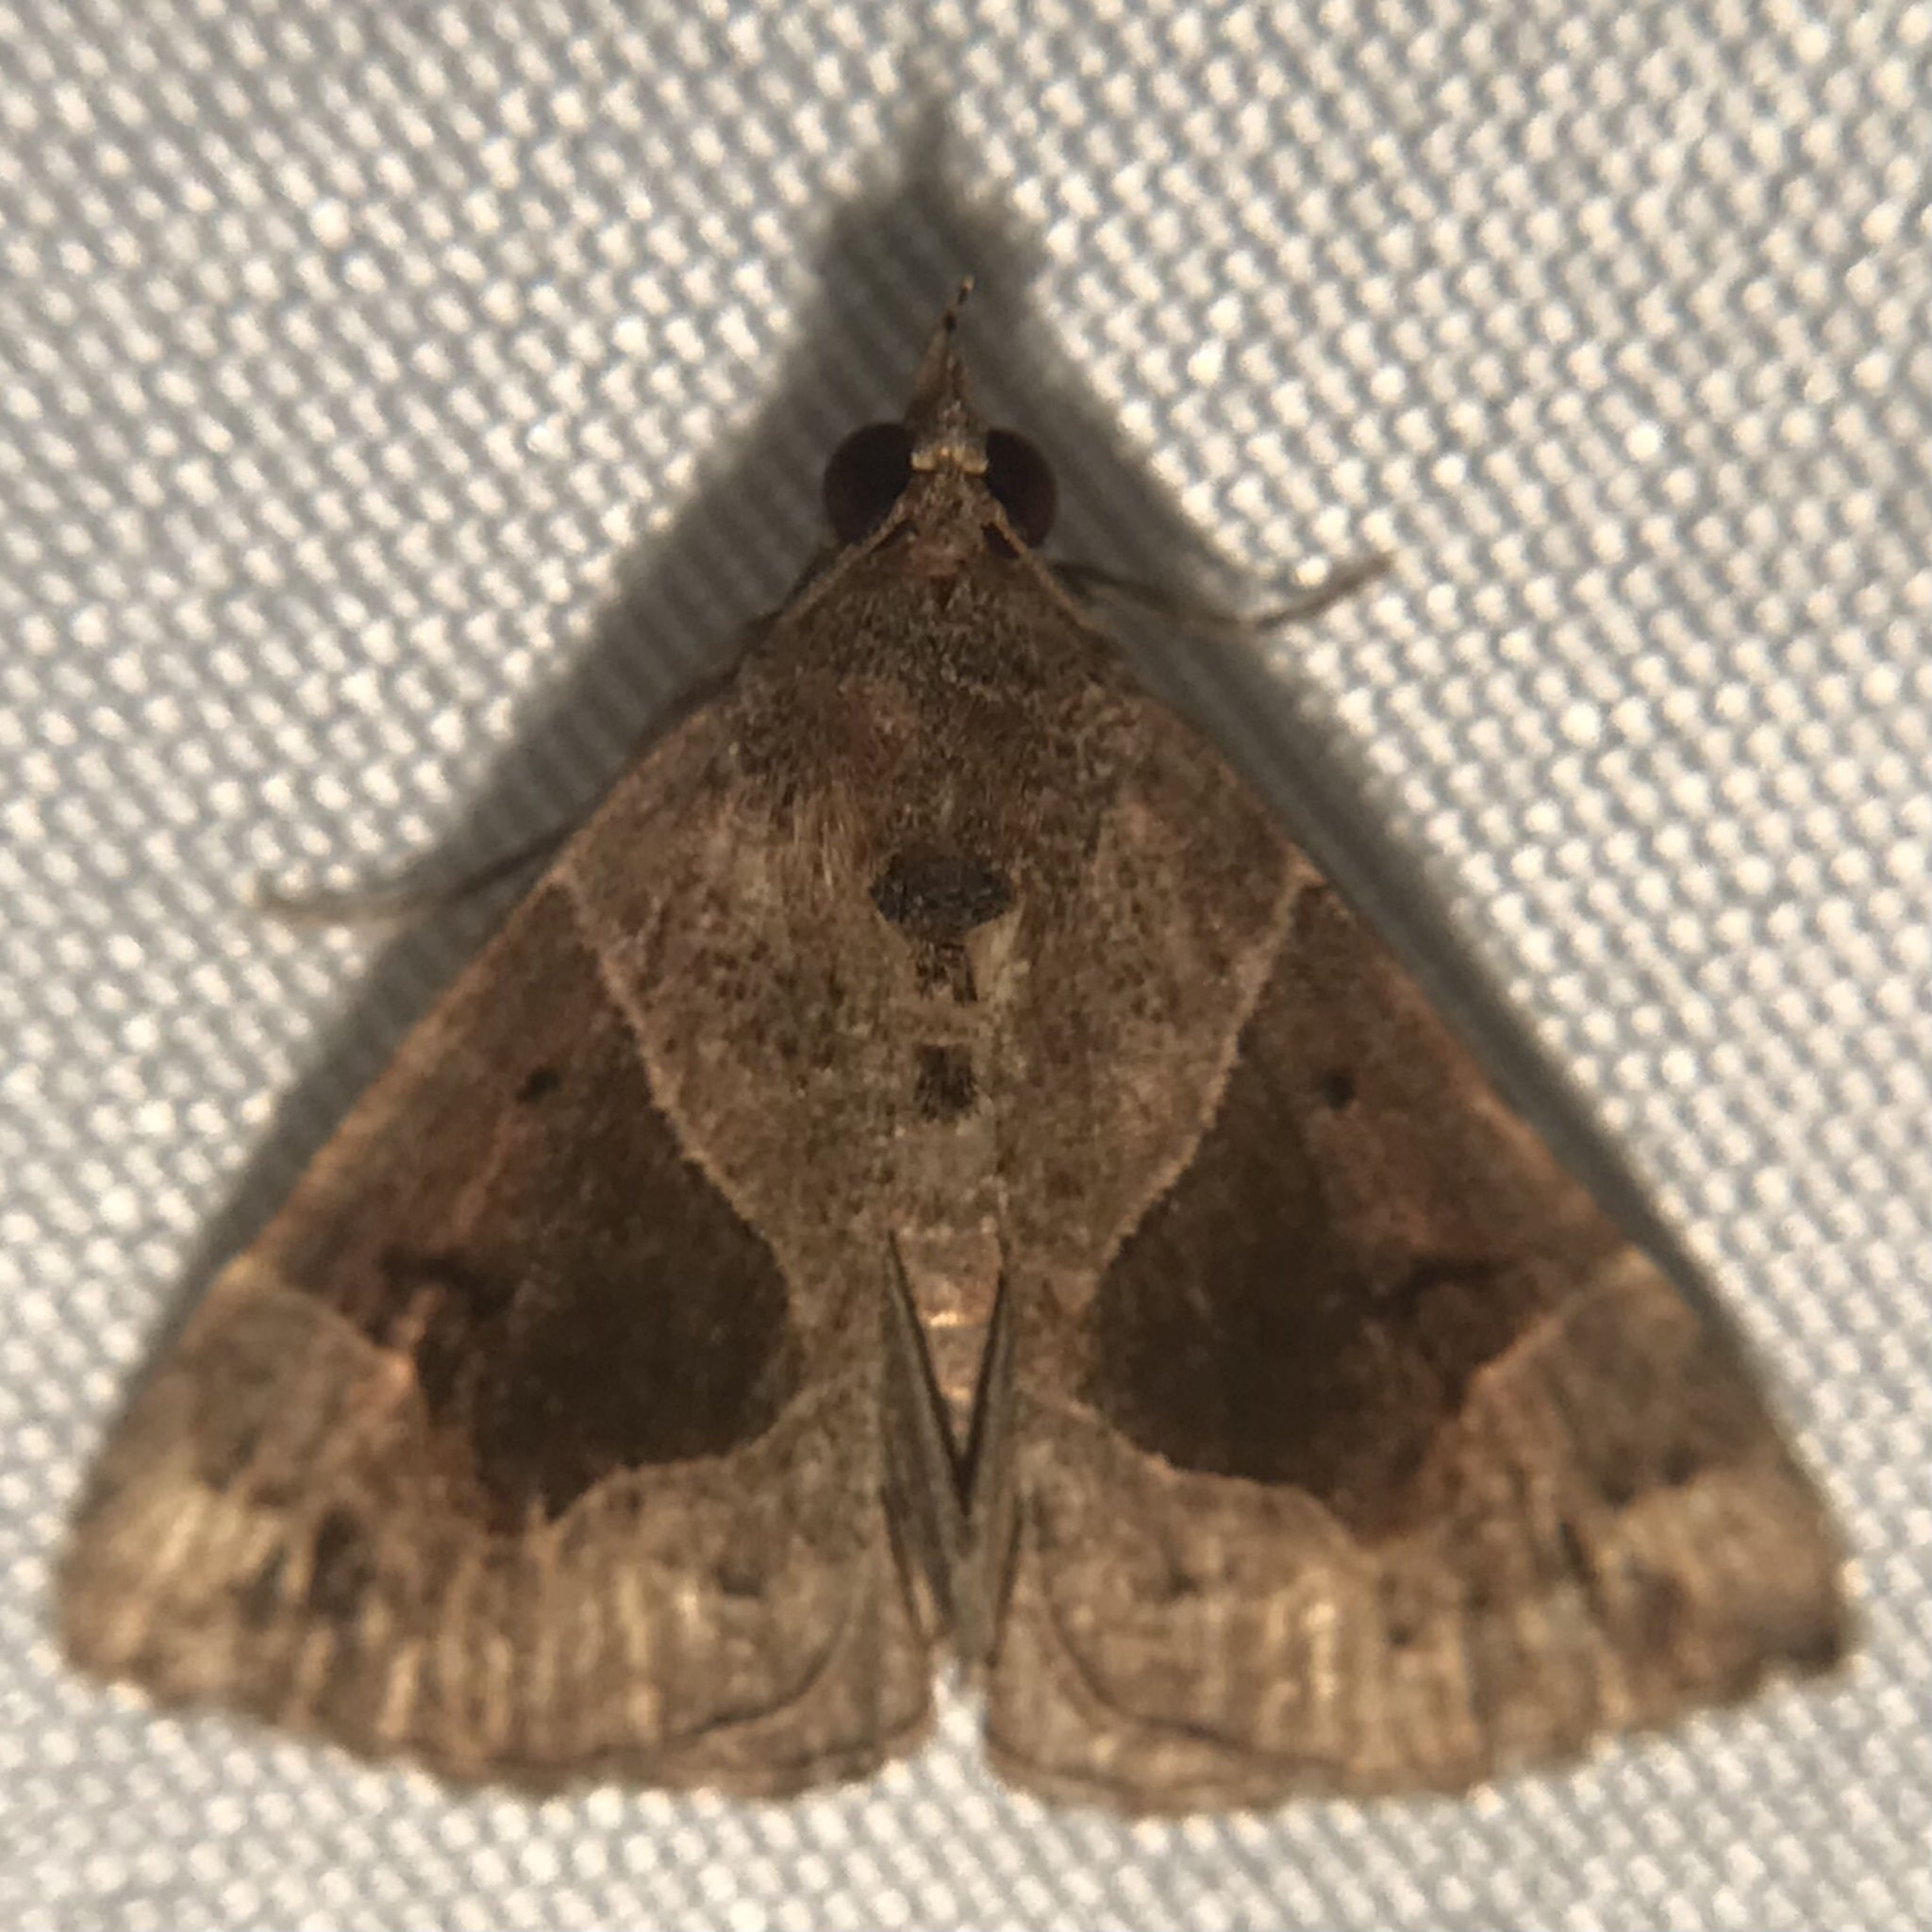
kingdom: Animalia
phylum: Arthropoda
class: Insecta
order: Lepidoptera
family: Erebidae
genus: Hypena
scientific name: Hypena manalis
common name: Flowing-line bomolocha moth
